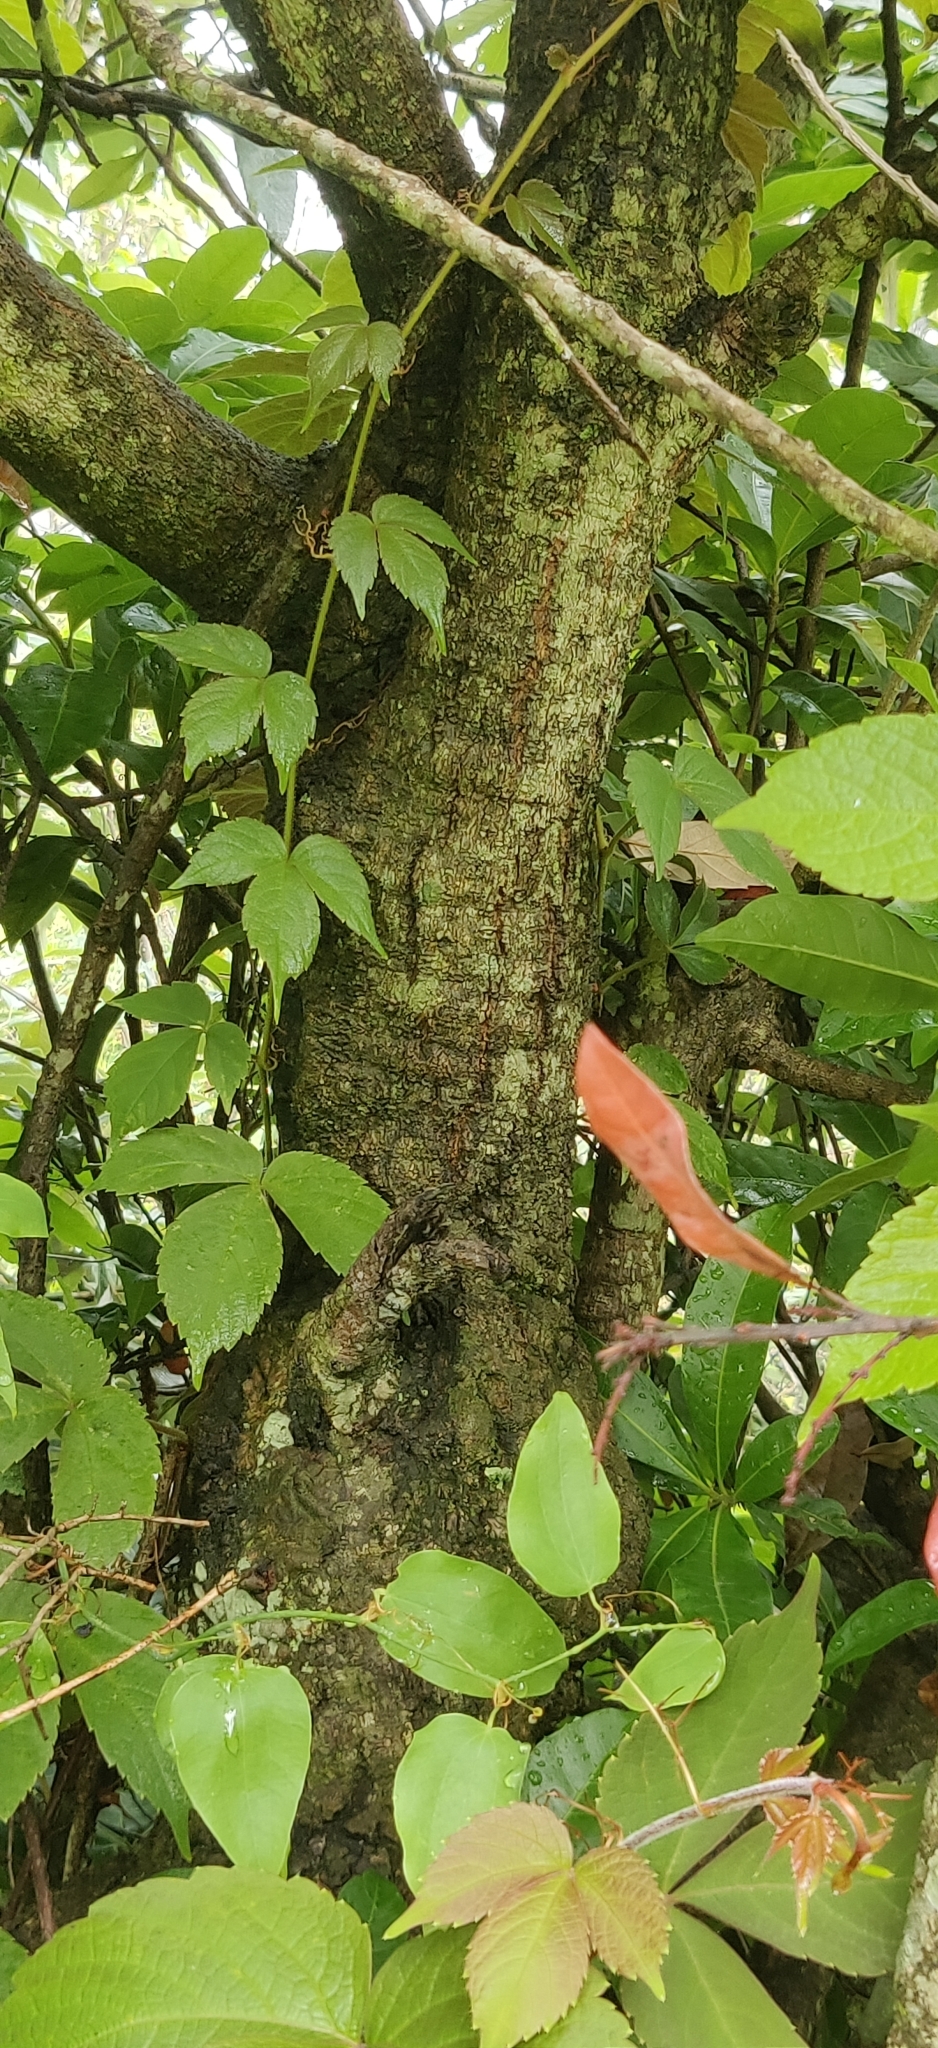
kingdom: Plantae
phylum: Tracheophyta
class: Magnoliopsida
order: Fagales
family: Myricaceae
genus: Morella
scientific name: Morella esculenta
